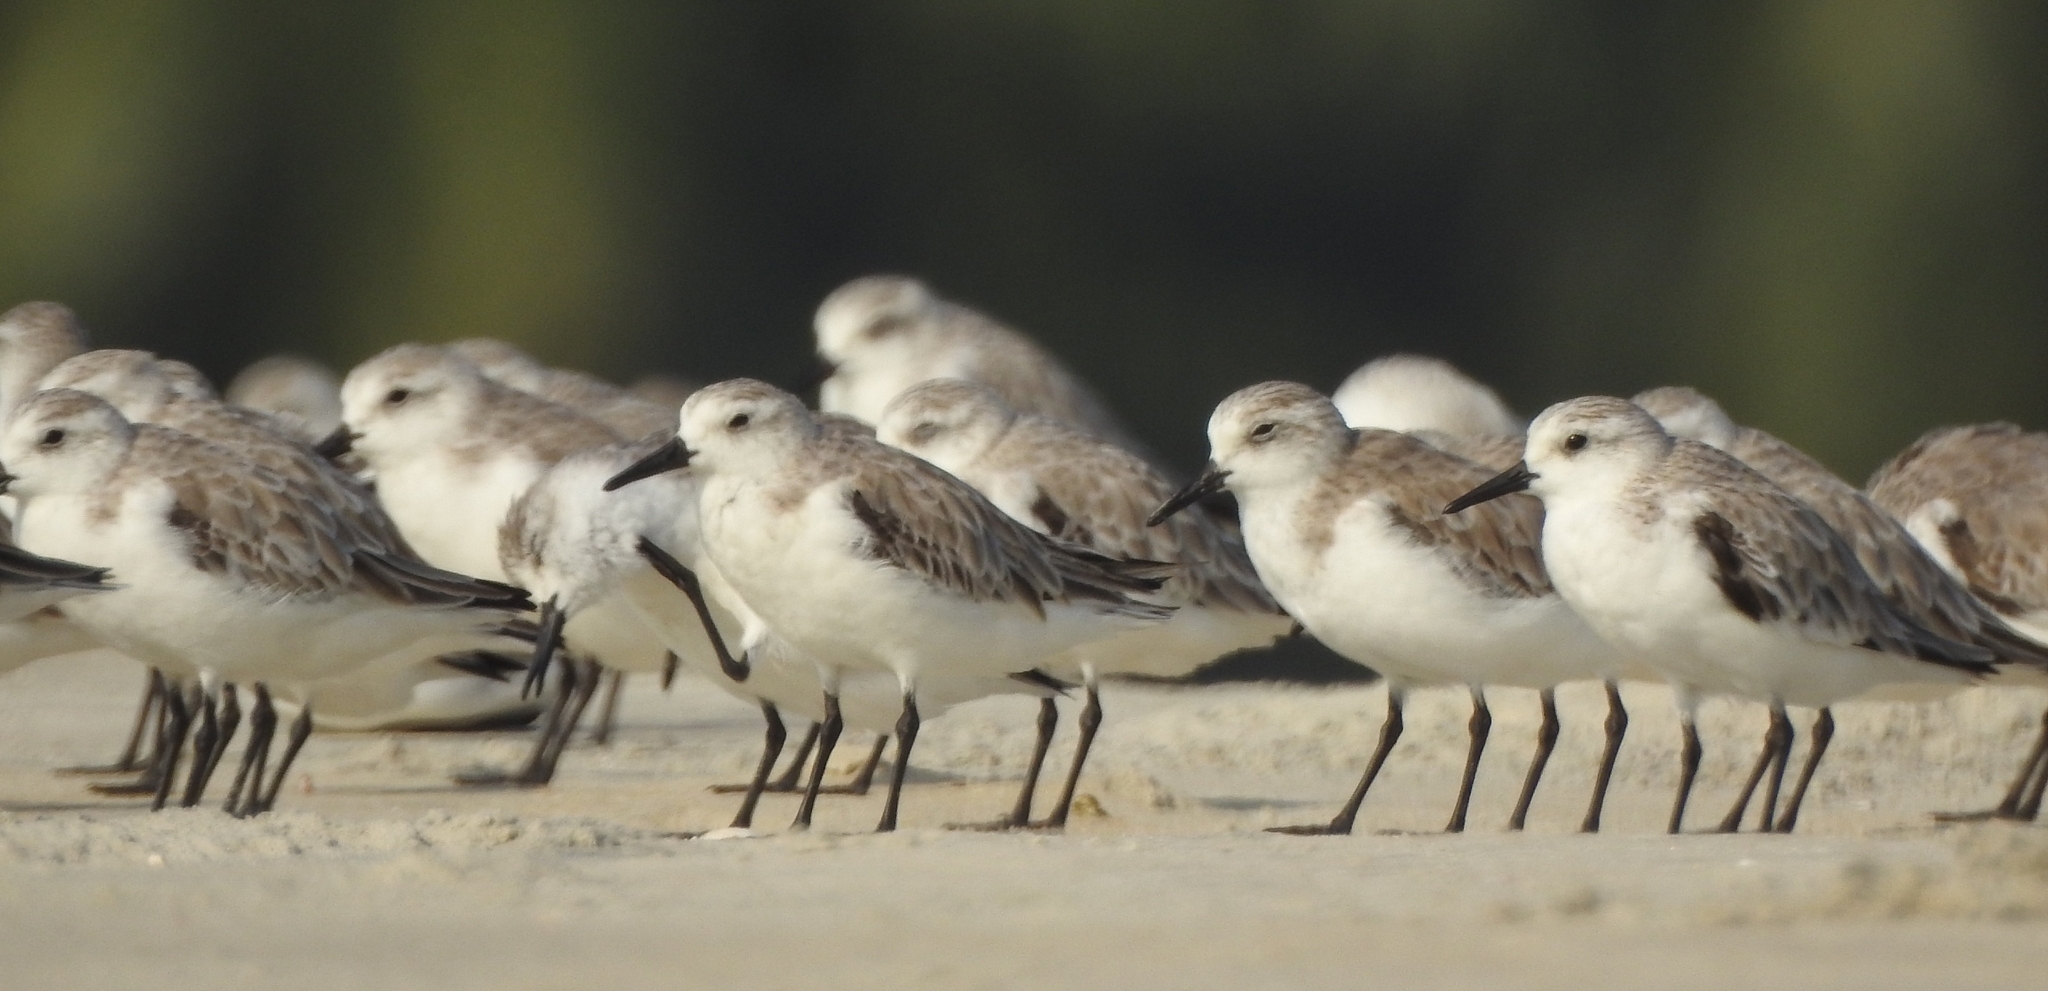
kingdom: Animalia
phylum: Chordata
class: Aves
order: Charadriiformes
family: Scolopacidae
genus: Calidris
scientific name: Calidris alba
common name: Sanderling
